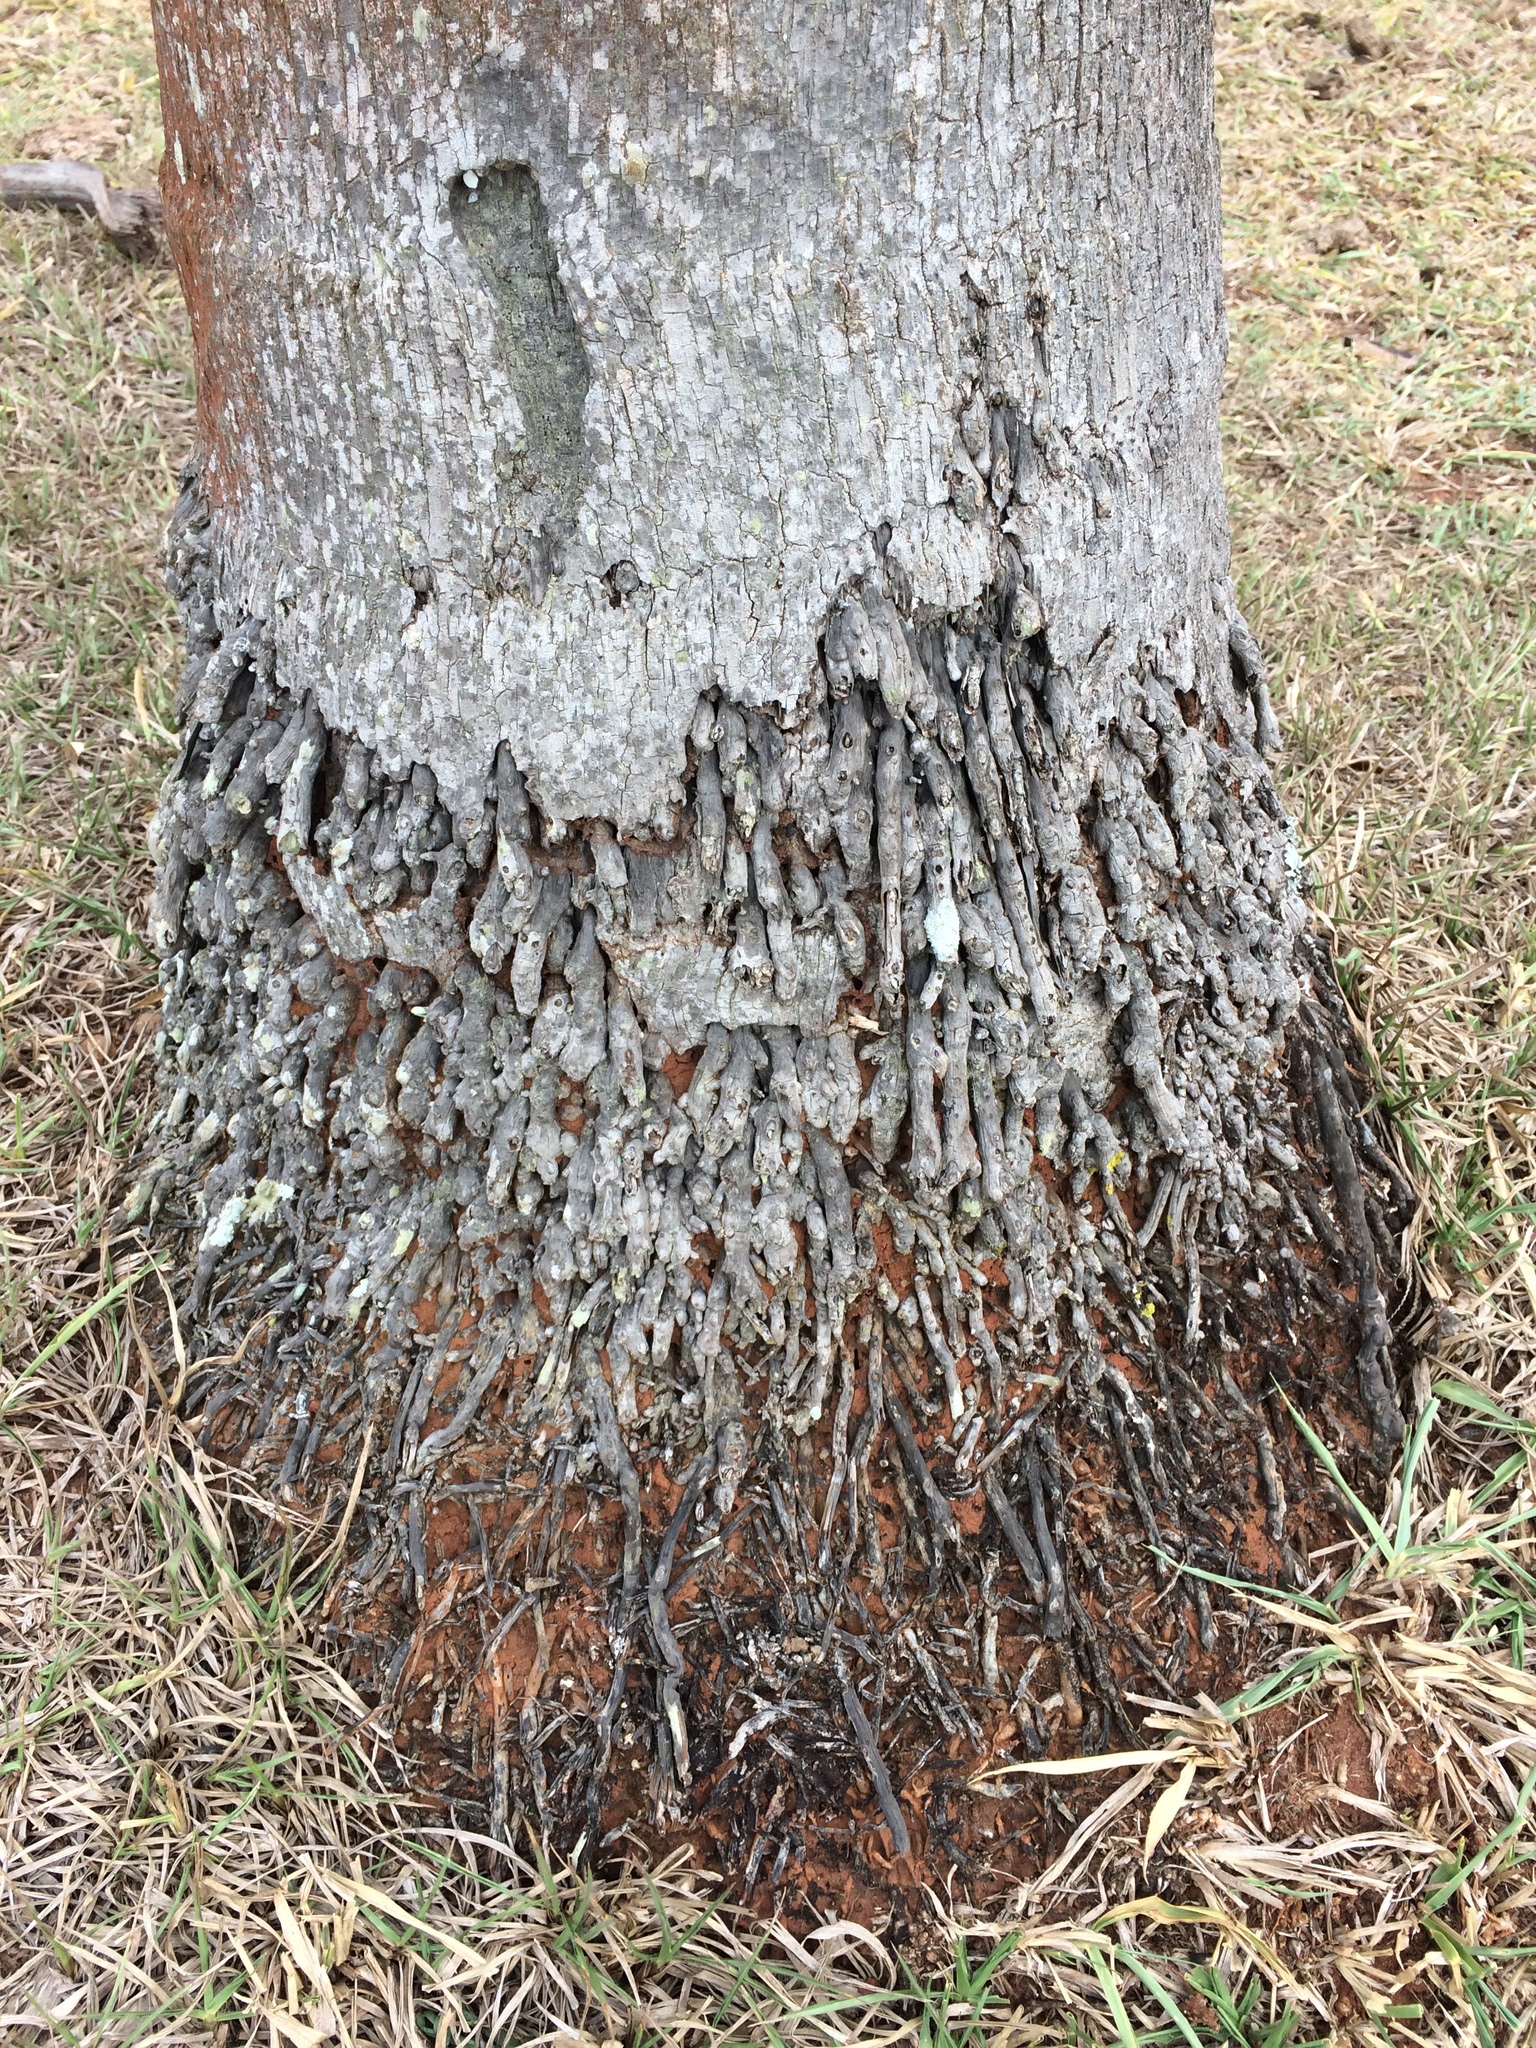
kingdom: Plantae
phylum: Tracheophyta
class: Liliopsida
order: Arecales
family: Arecaceae
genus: Acrocomia
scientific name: Acrocomia aculeata
